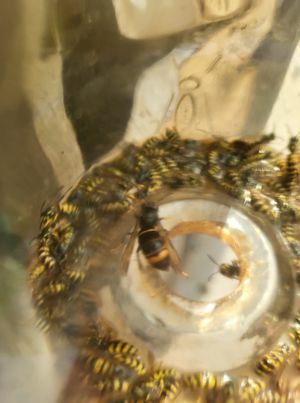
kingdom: Animalia
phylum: Arthropoda
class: Insecta
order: Hymenoptera
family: Vespidae
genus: Vespa
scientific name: Vespa velutina
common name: Asian hornet
